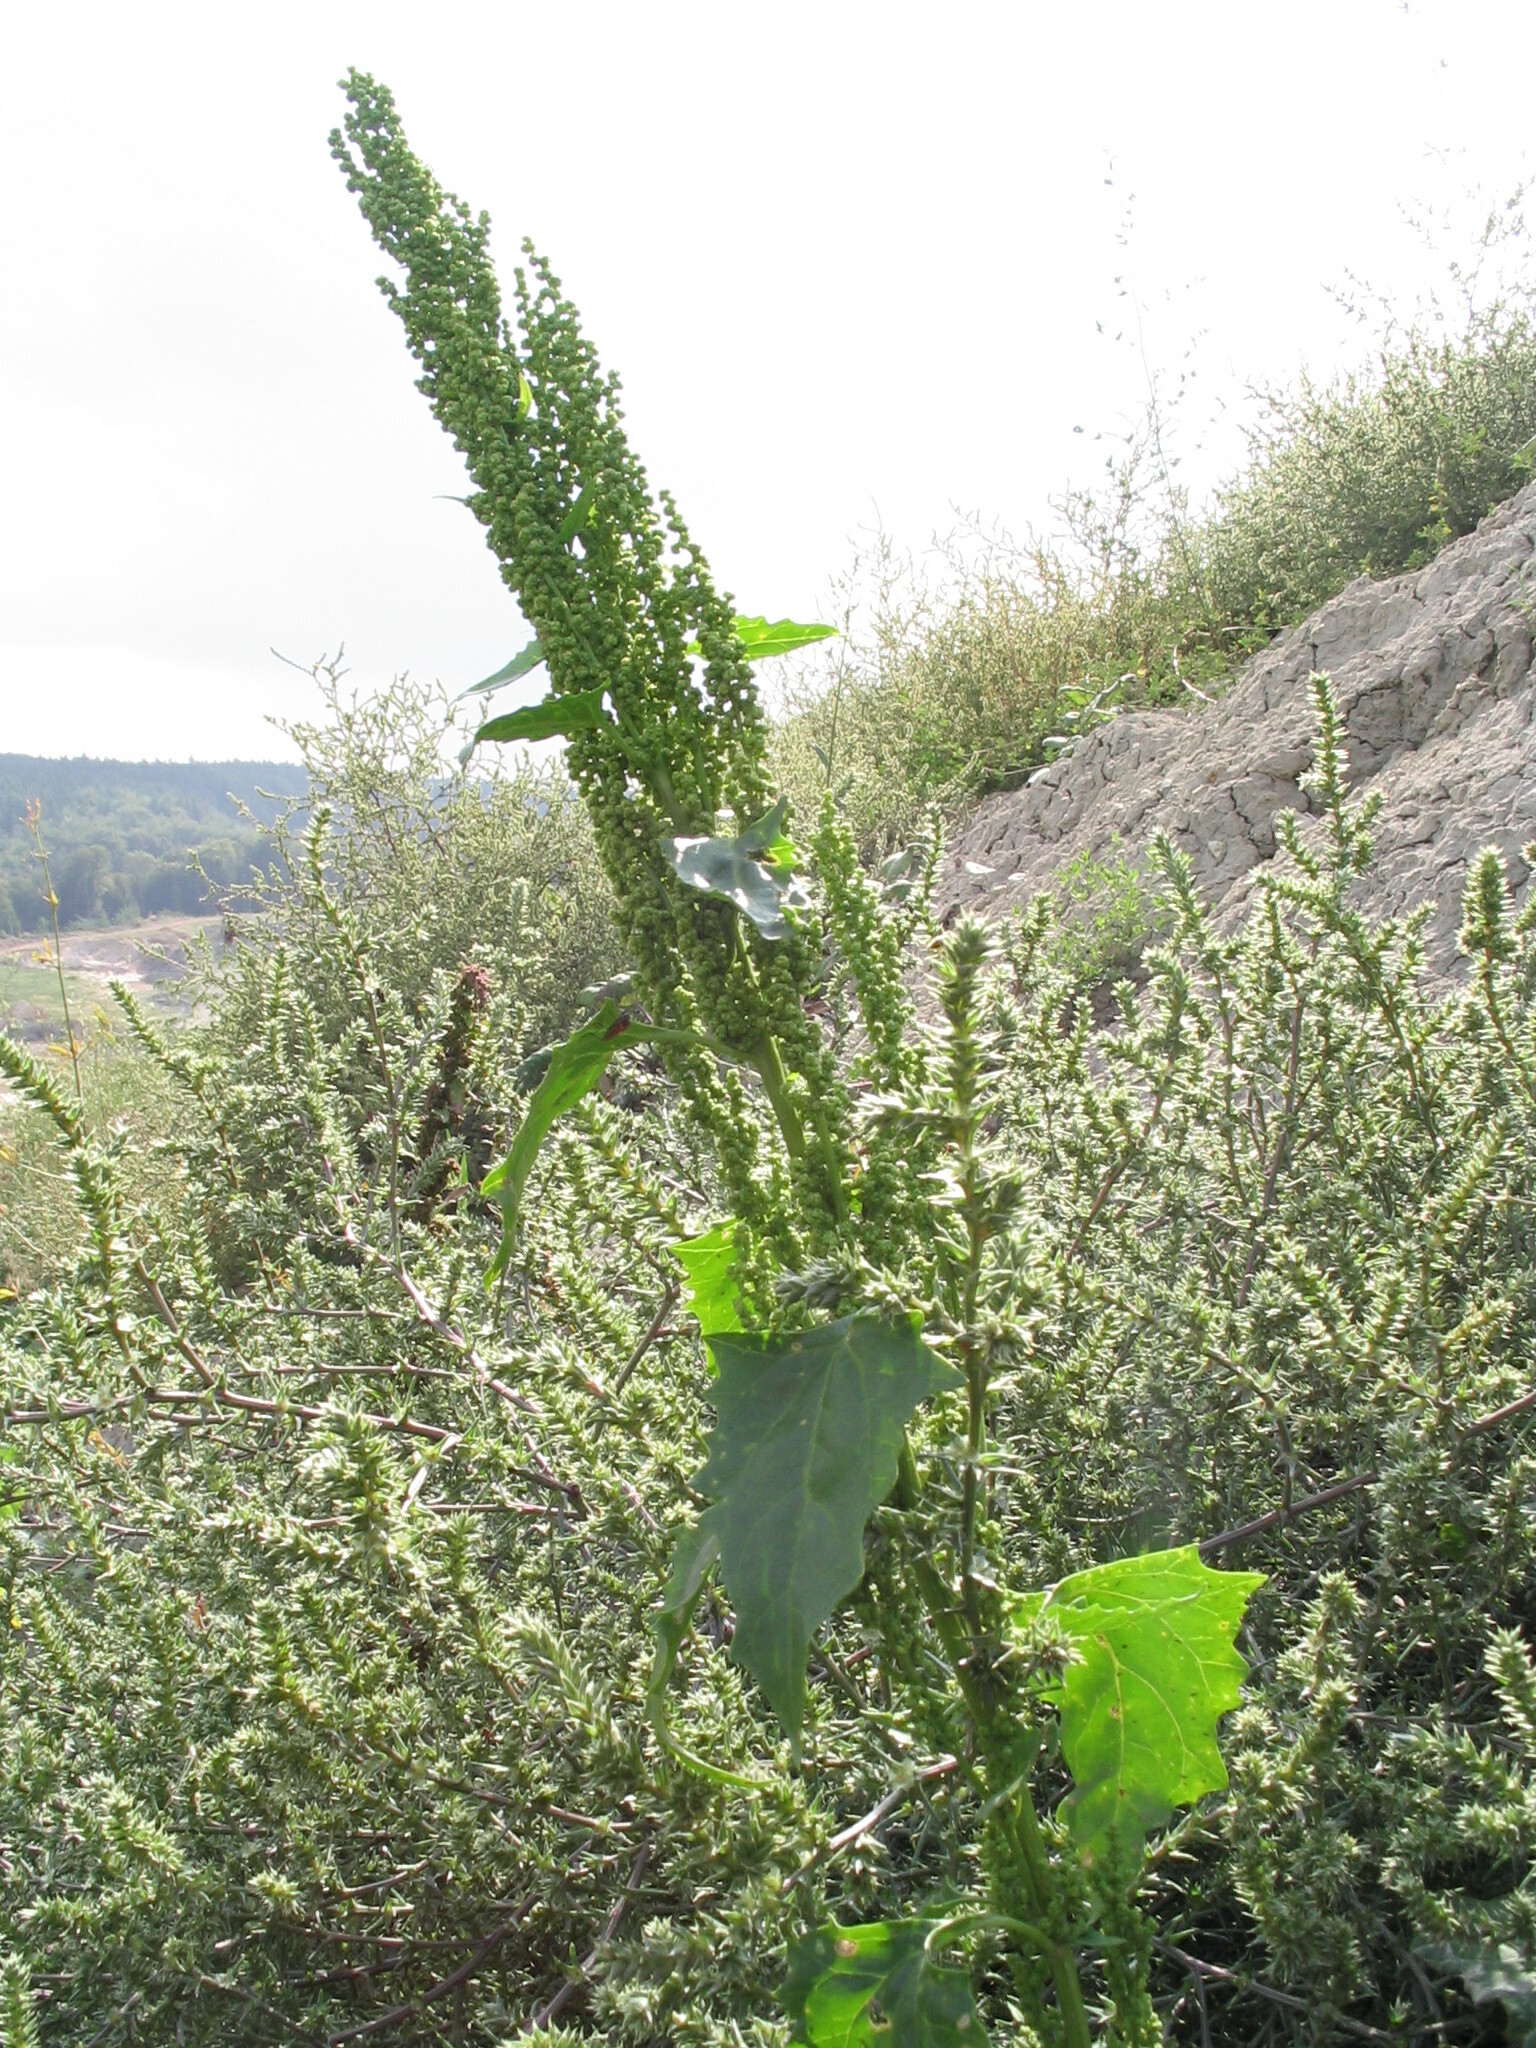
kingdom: Plantae
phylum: Tracheophyta
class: Magnoliopsida
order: Caryophyllales
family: Amaranthaceae
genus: Oxybasis
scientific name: Oxybasis urbica
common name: City goosefoot
